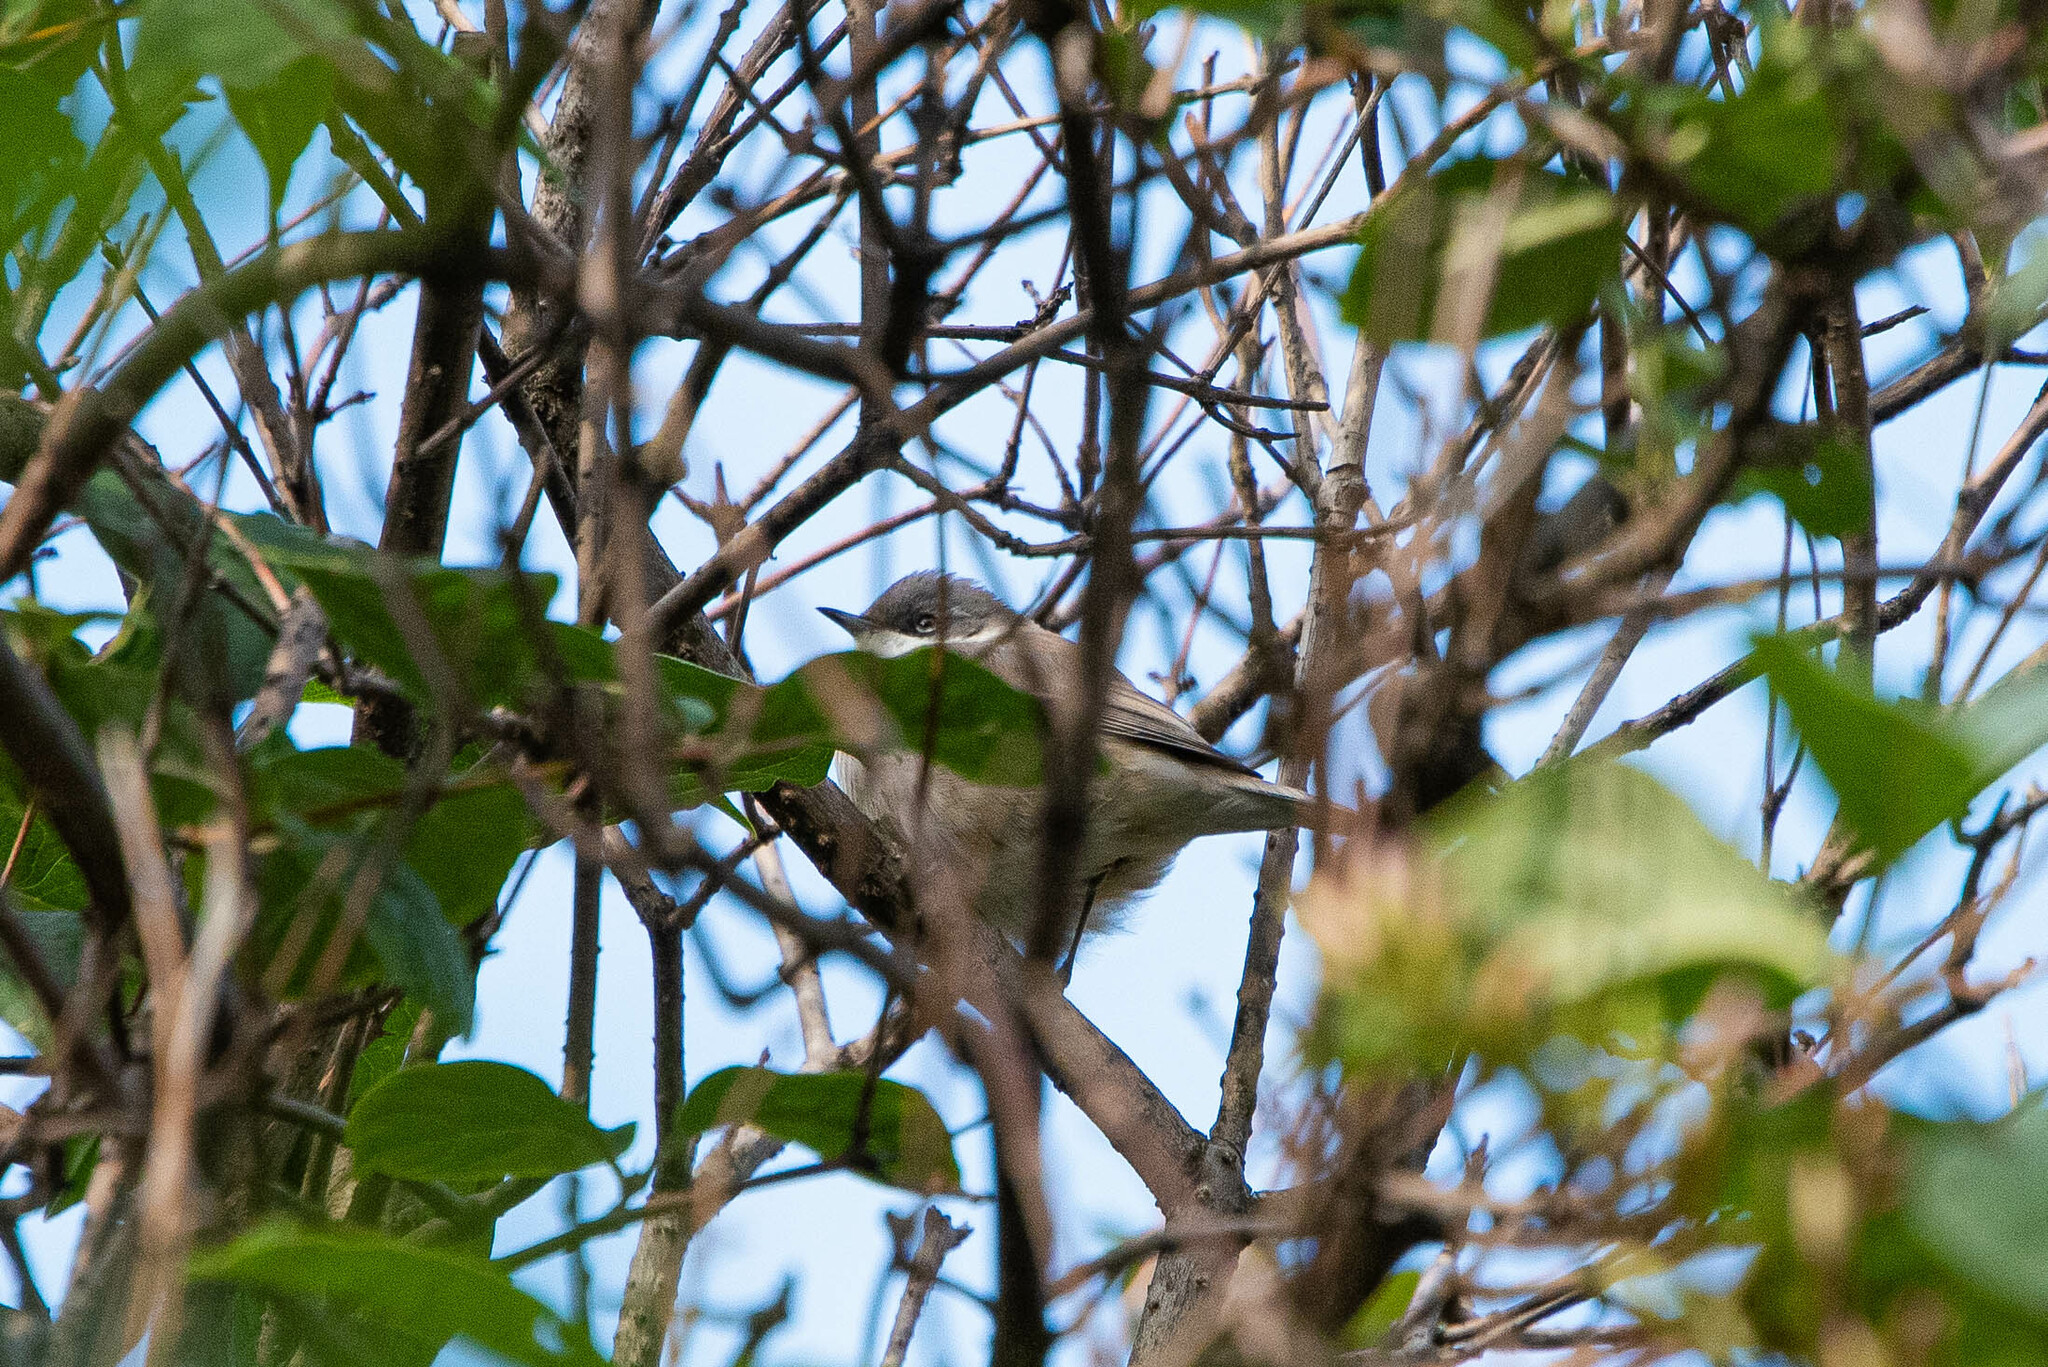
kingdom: Animalia
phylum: Chordata
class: Aves
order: Passeriformes
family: Sylviidae
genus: Sylvia
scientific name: Sylvia curruca
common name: Lesser whitethroat
